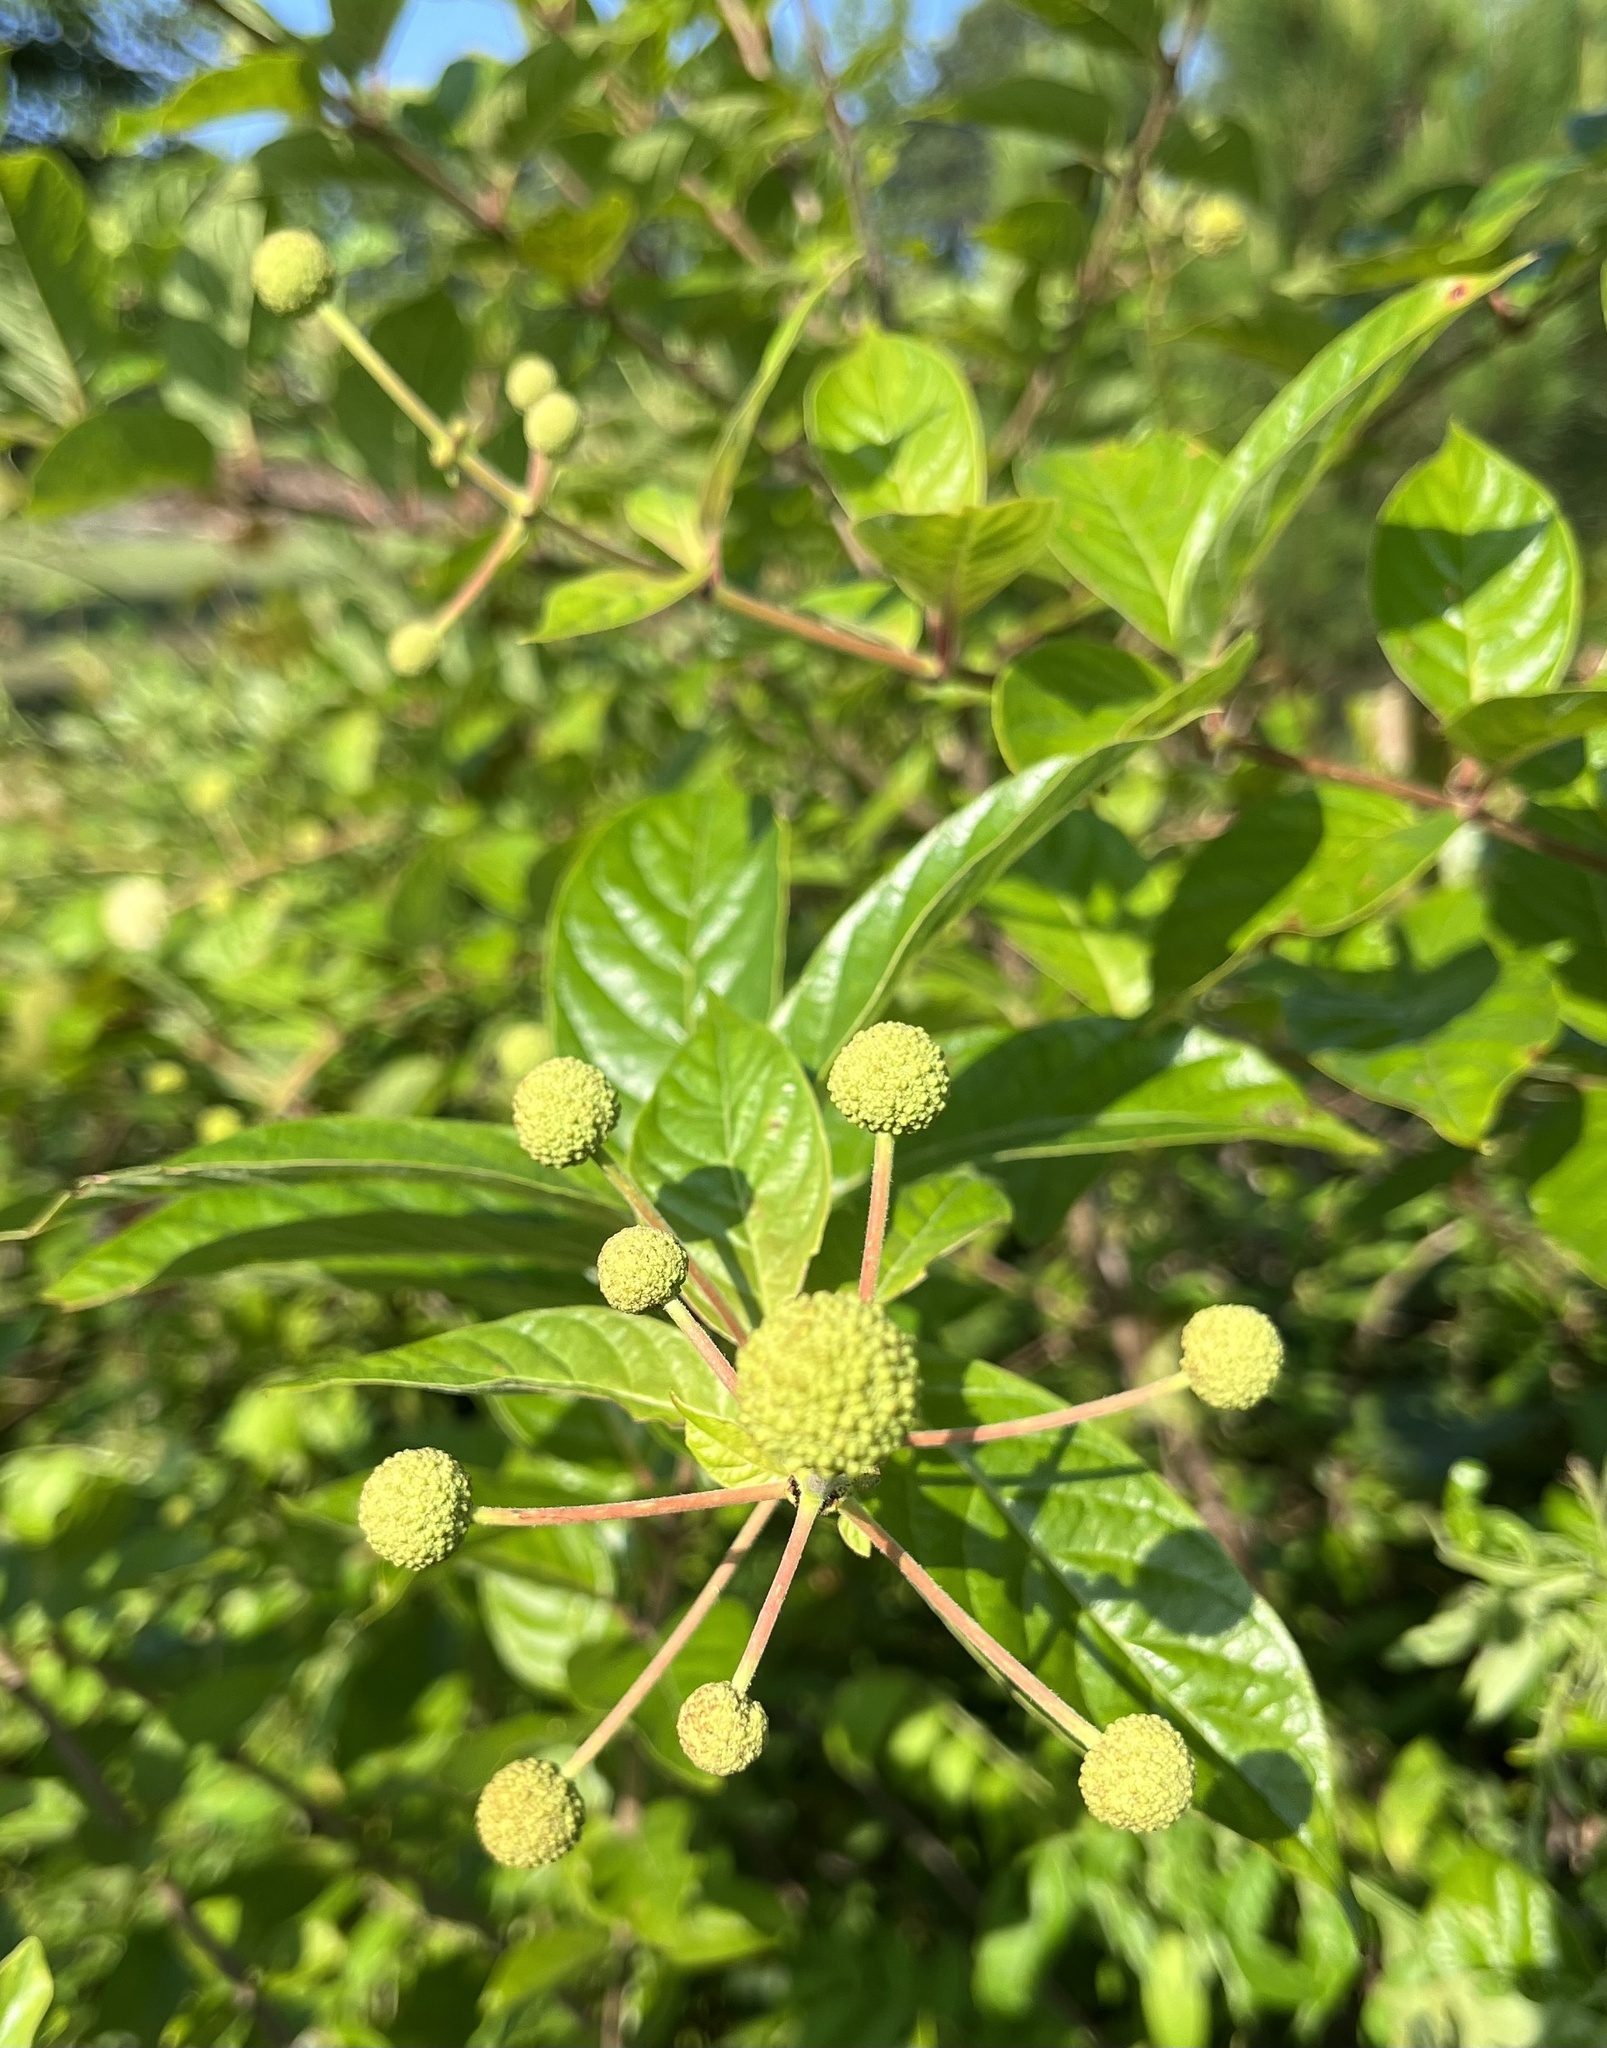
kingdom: Plantae
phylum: Tracheophyta
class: Magnoliopsida
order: Gentianales
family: Rubiaceae
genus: Cephalanthus
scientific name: Cephalanthus occidentalis
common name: Button-willow
